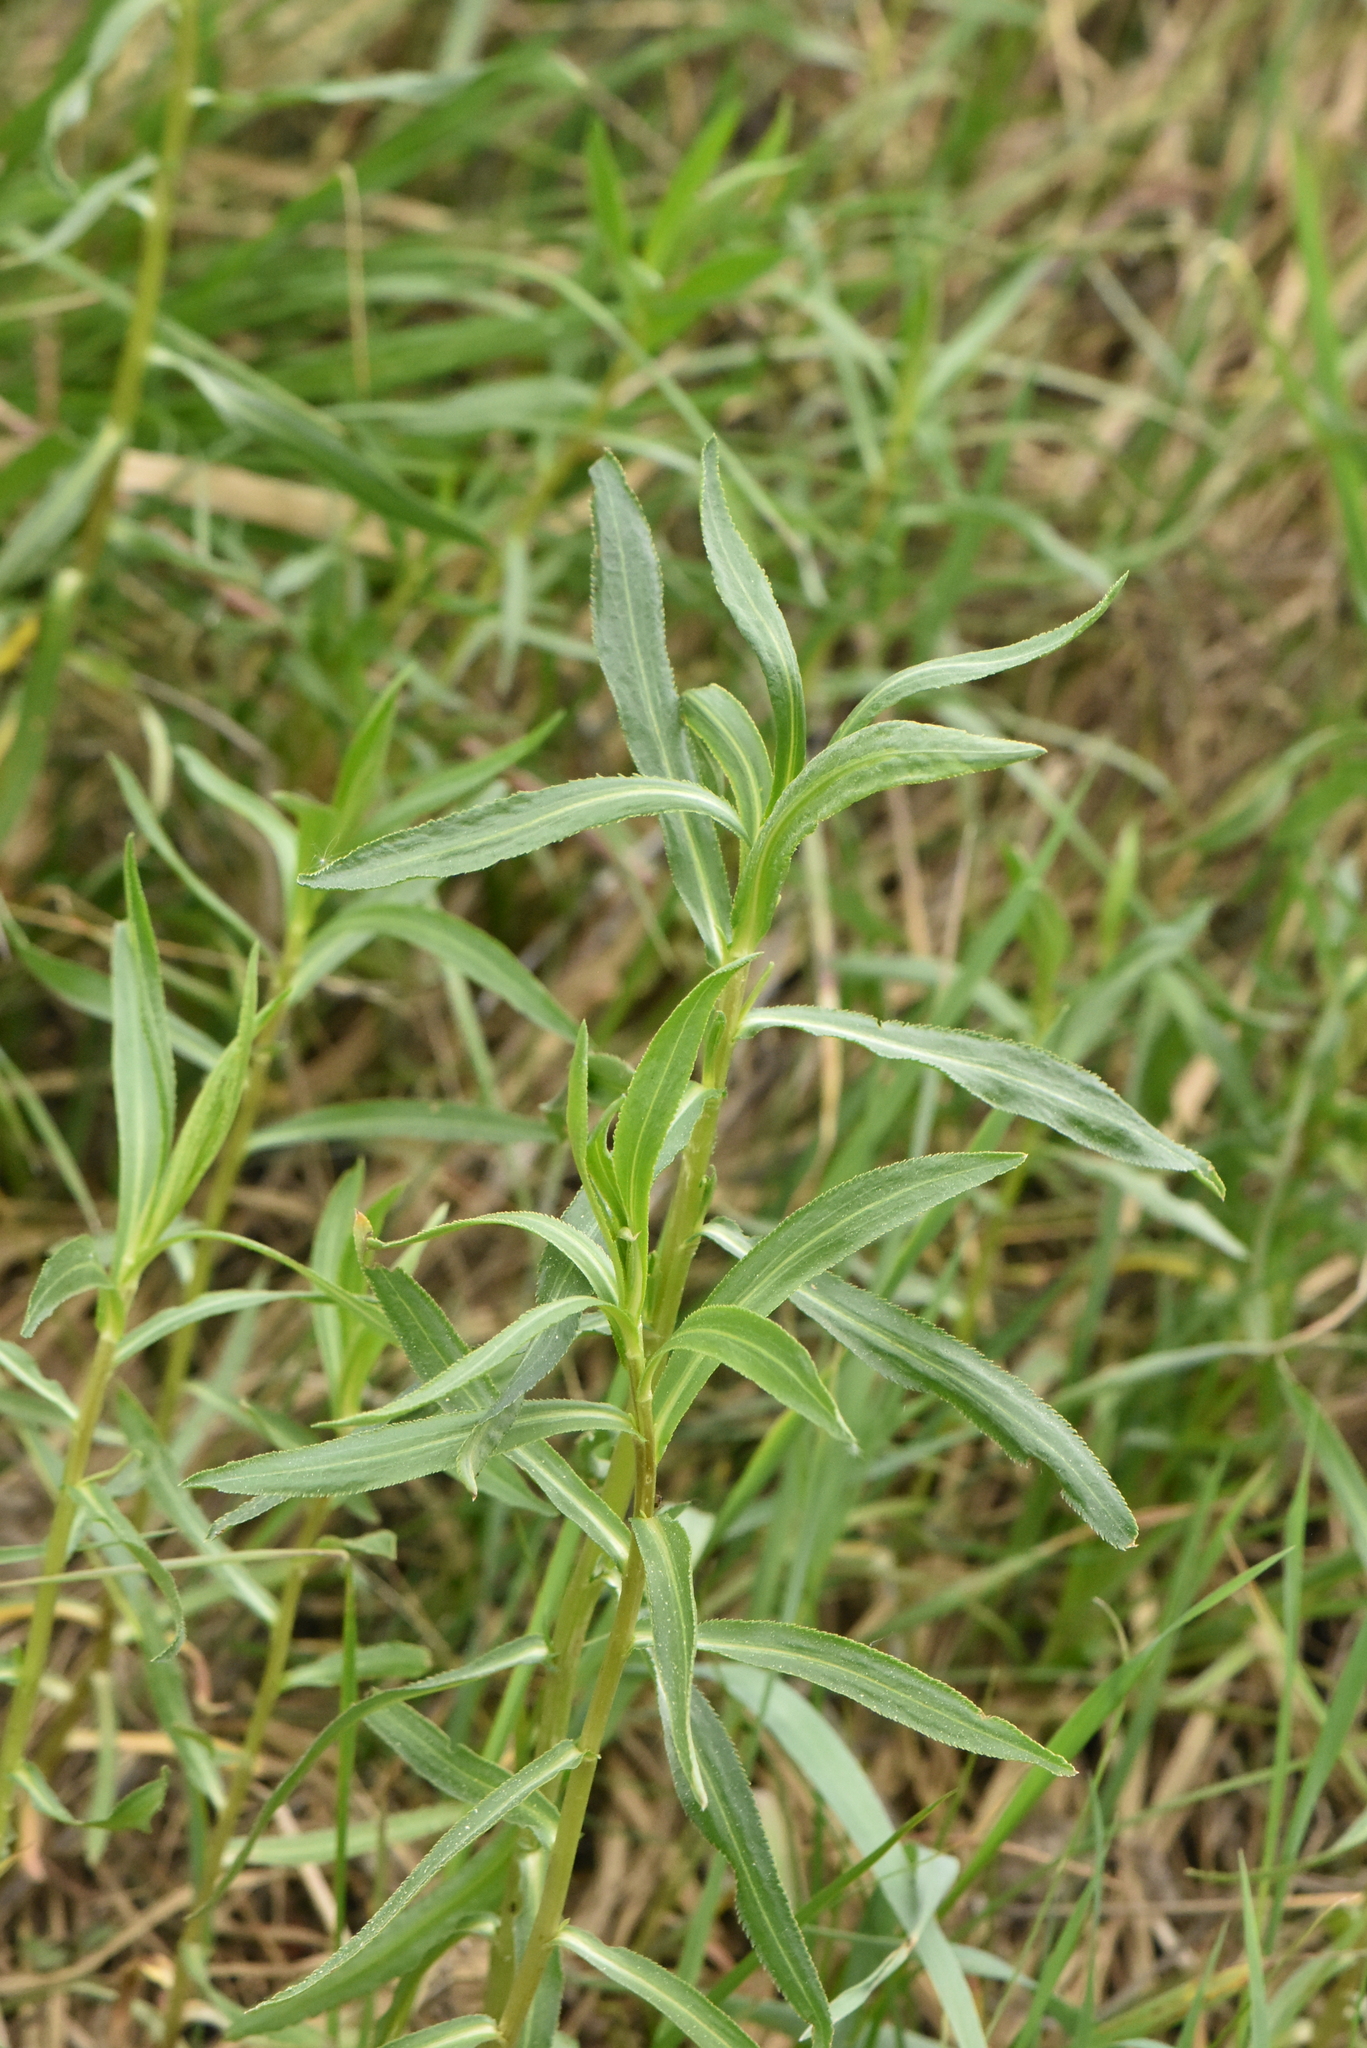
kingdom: Plantae
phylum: Tracheophyta
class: Magnoliopsida
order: Asterales
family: Asteraceae
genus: Achillea
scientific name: Achillea salicifolia
